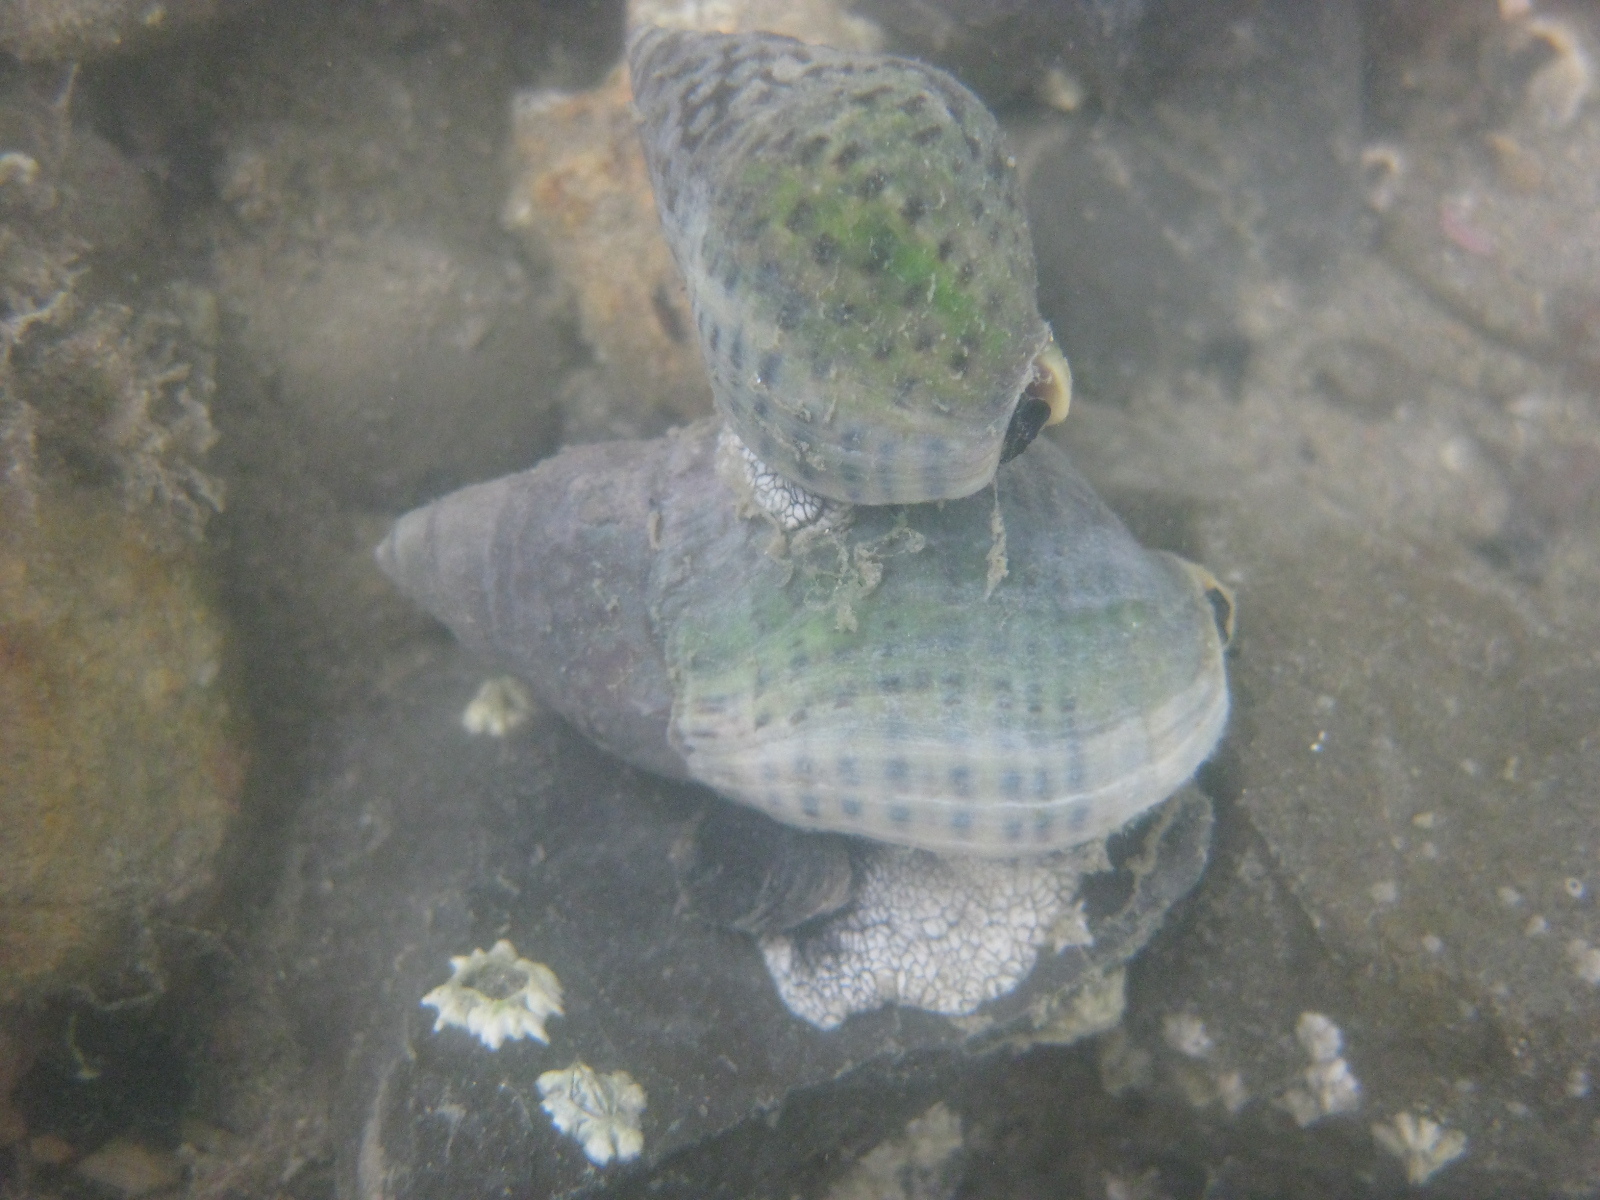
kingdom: Animalia
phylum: Mollusca
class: Gastropoda
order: Neogastropoda
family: Cominellidae
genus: Cominella
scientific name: Cominella maculosa
